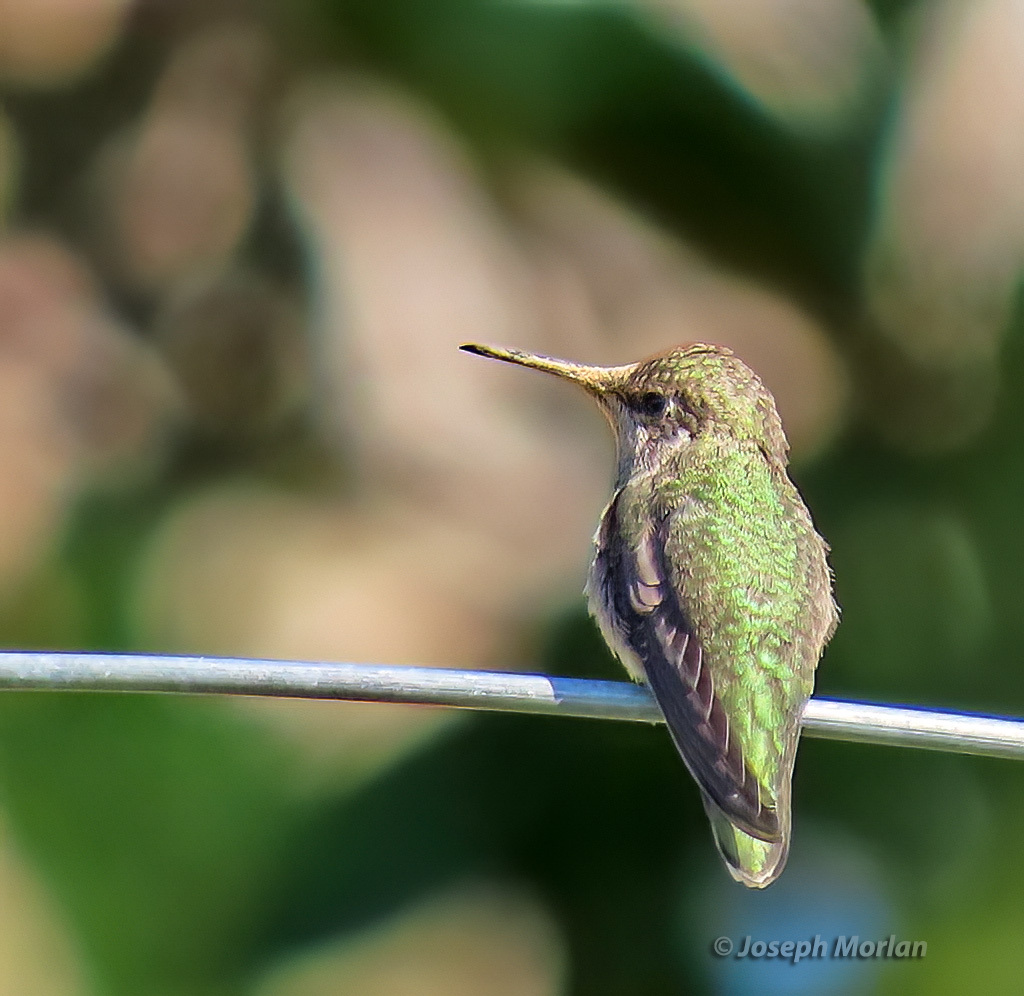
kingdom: Animalia
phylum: Chordata
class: Aves
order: Apodiformes
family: Trochilidae
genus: Calypte
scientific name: Calypte anna
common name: Anna's hummingbird
